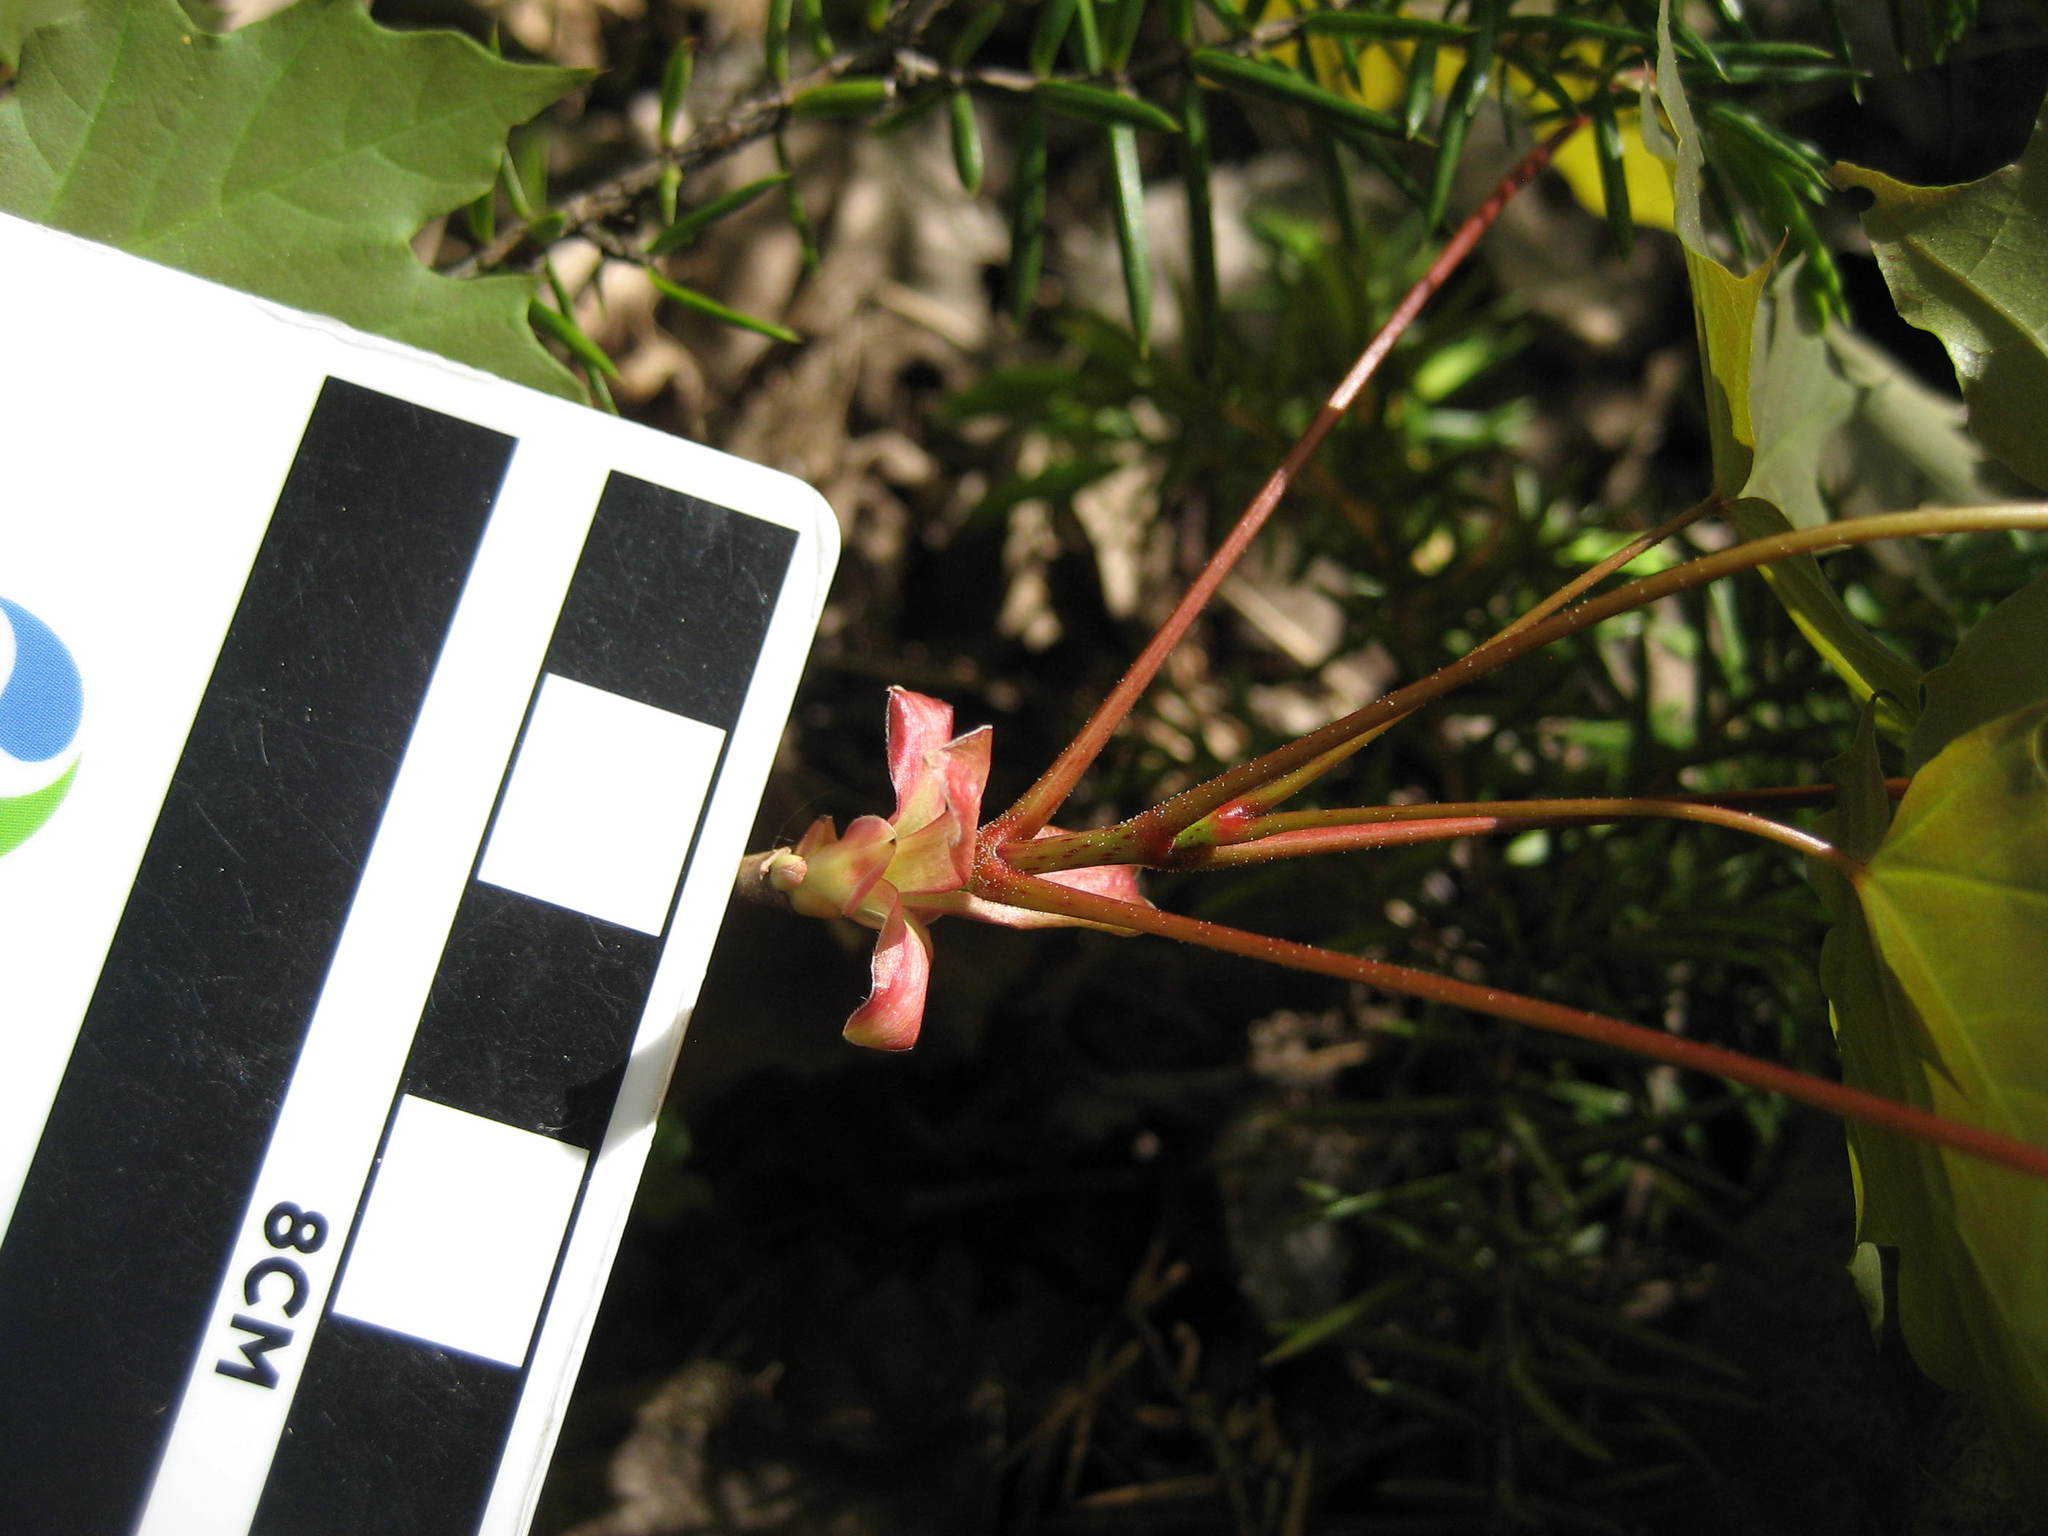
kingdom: Plantae
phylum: Tracheophyta
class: Magnoliopsida
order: Sapindales
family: Sapindaceae
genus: Acer
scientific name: Acer platanoides
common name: Norway maple
